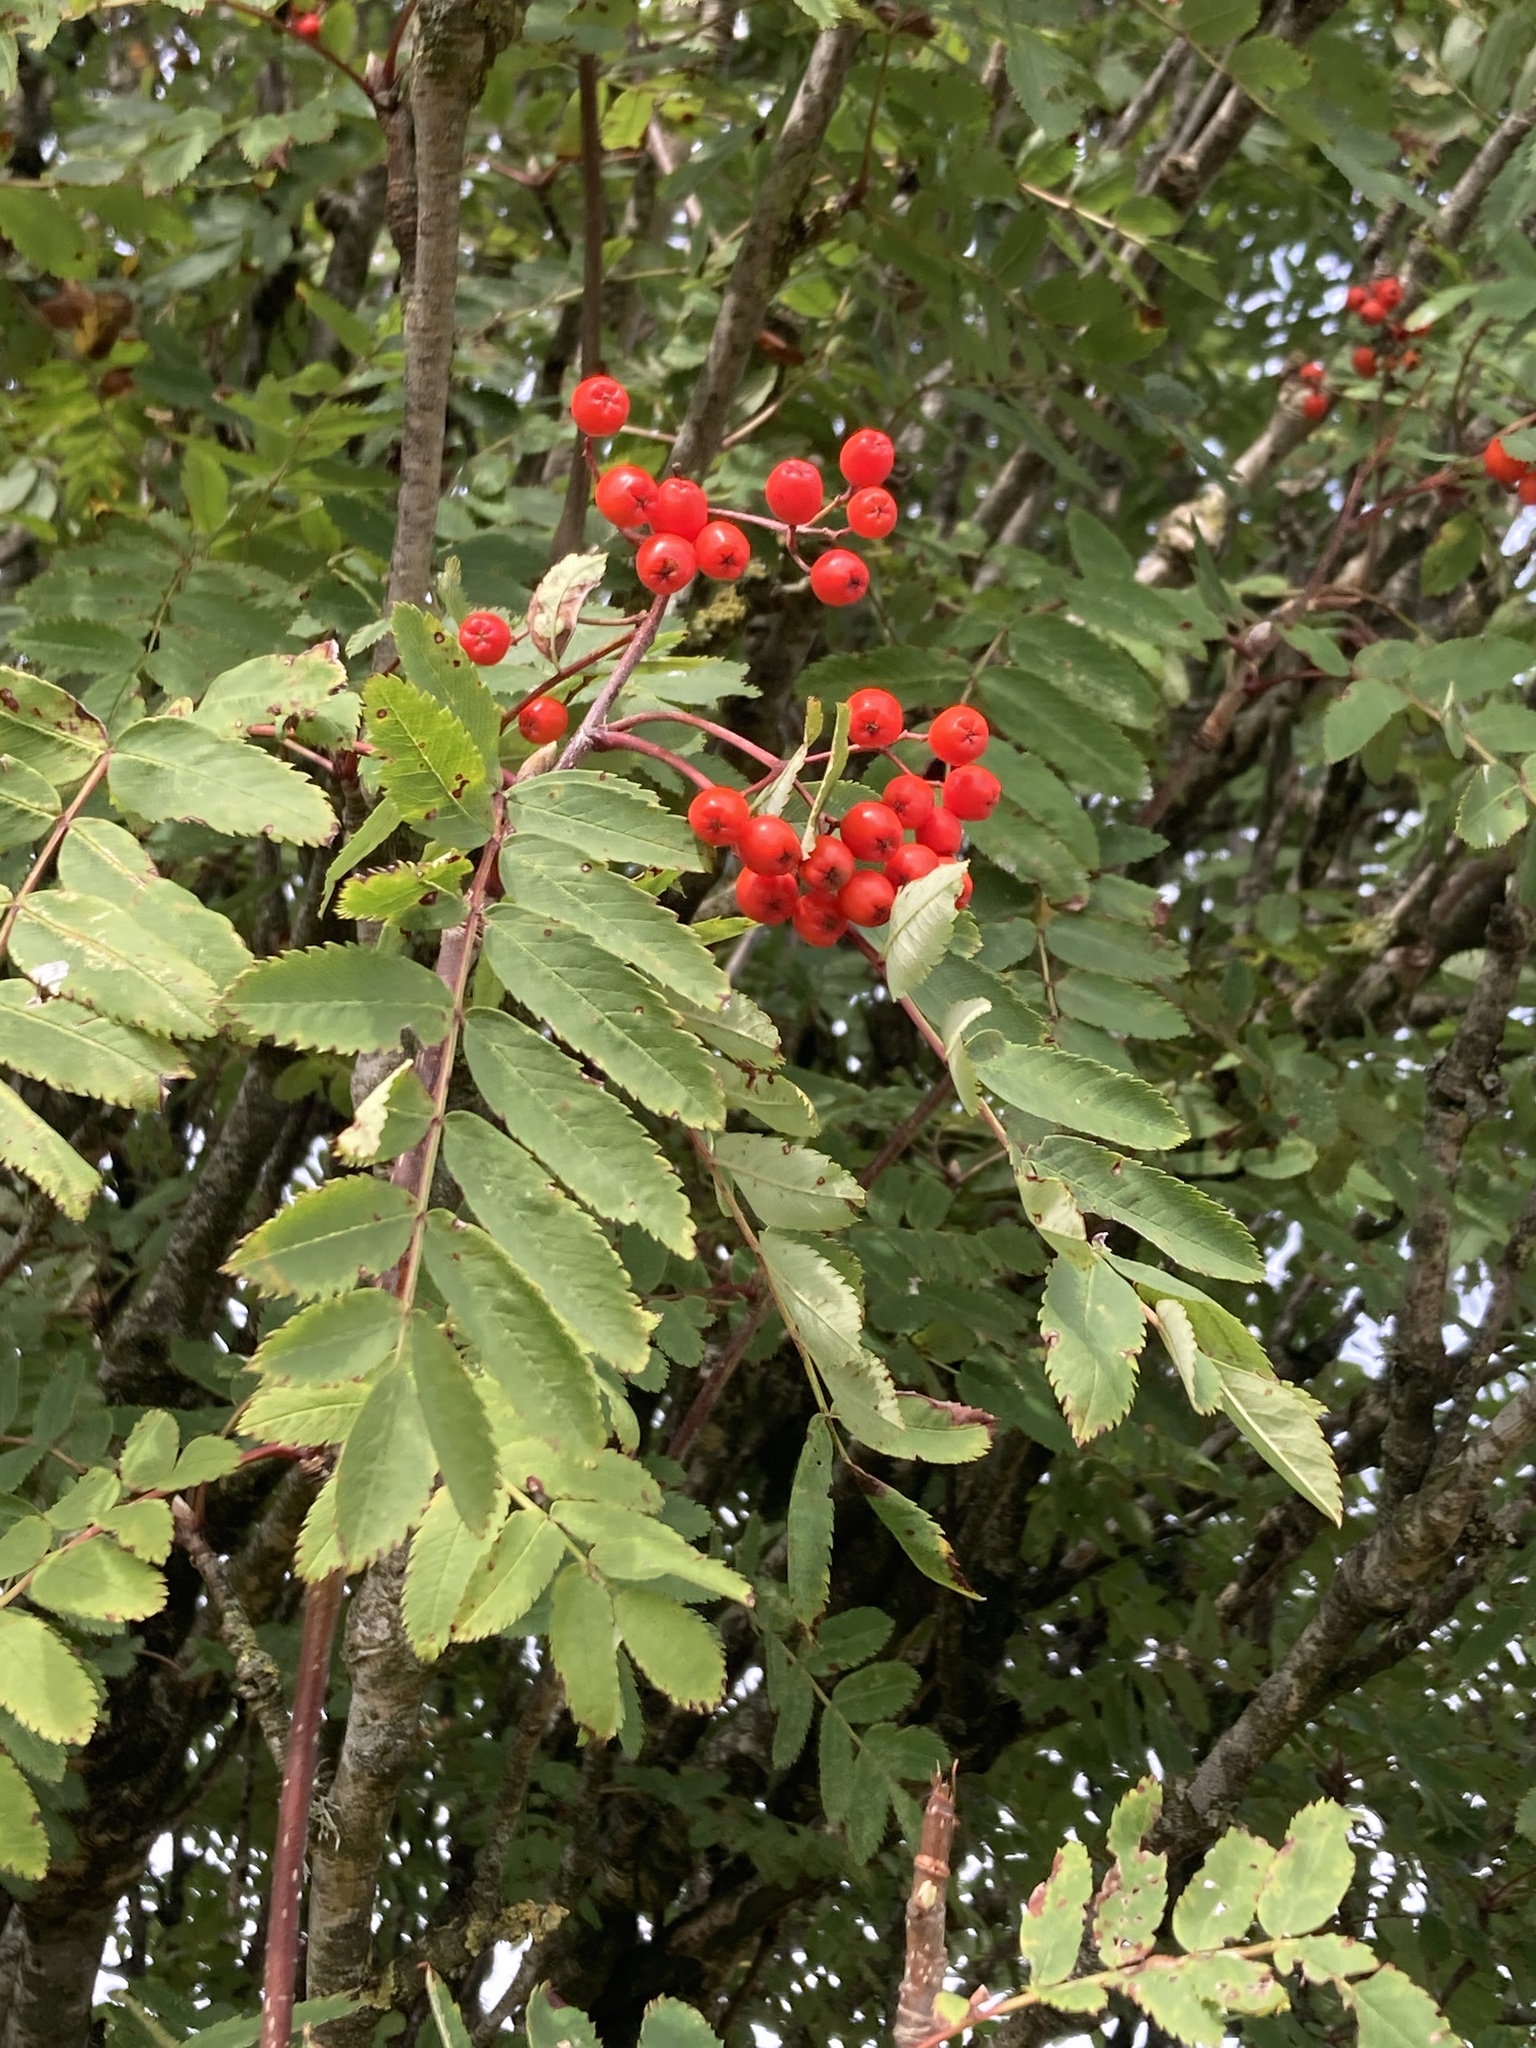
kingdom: Plantae
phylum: Tracheophyta
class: Magnoliopsida
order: Rosales
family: Rosaceae
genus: Sorbus
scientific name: Sorbus aucuparia
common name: Rowan
